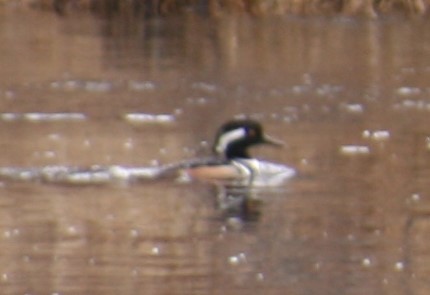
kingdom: Animalia
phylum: Chordata
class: Aves
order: Anseriformes
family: Anatidae
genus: Lophodytes
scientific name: Lophodytes cucullatus
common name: Hooded merganser
